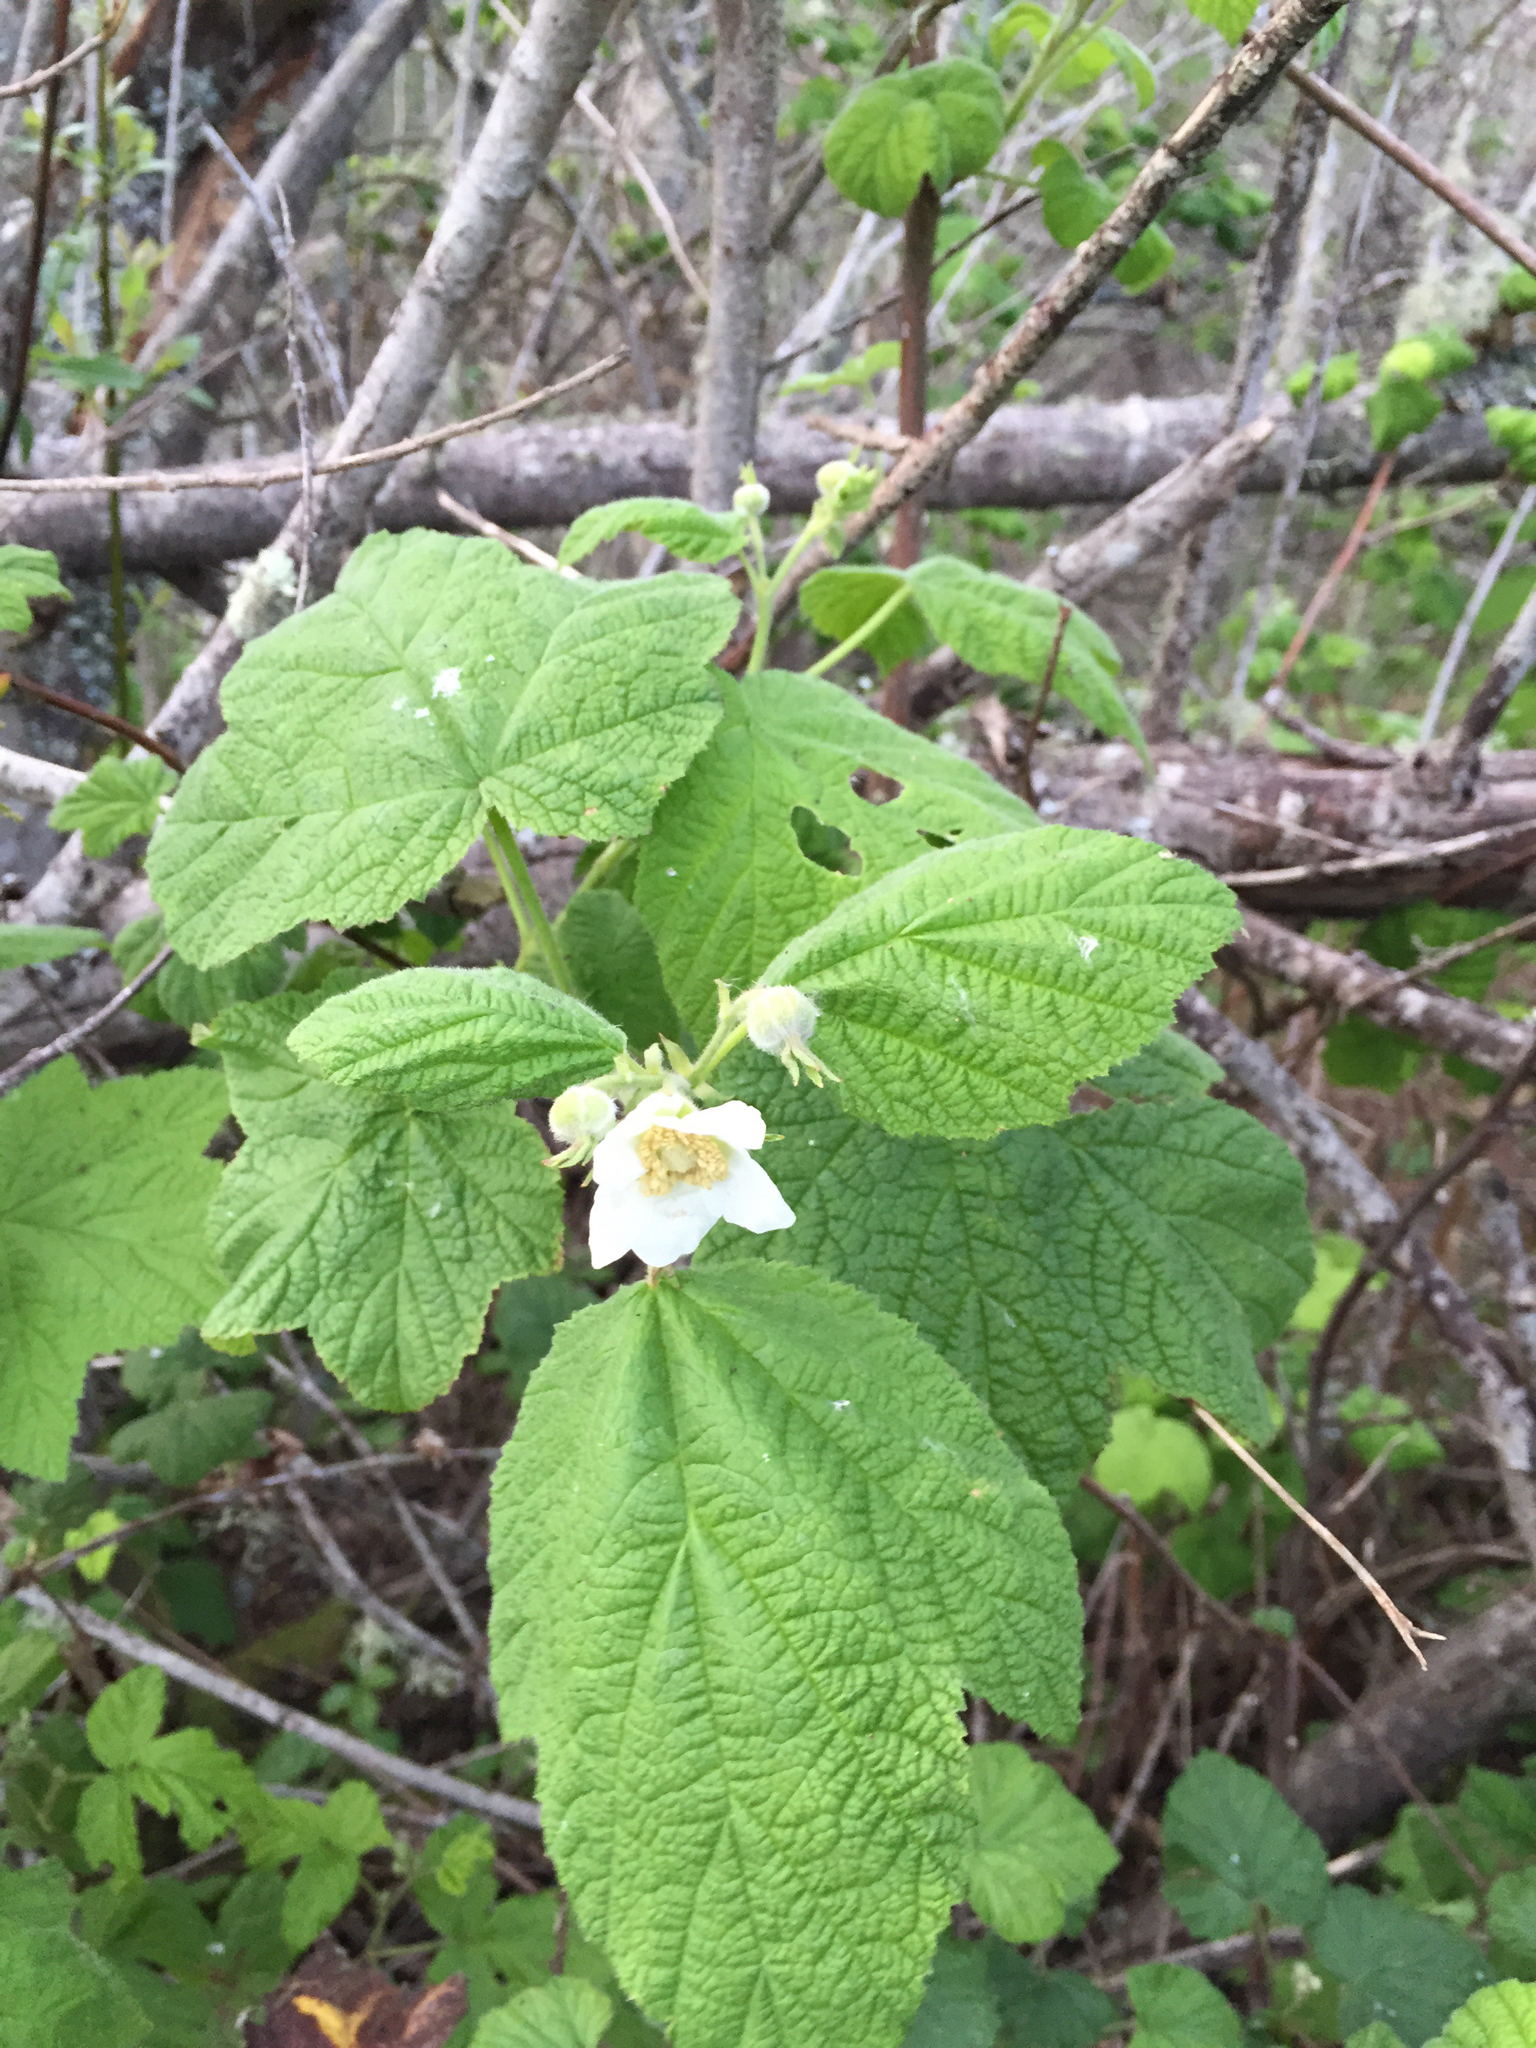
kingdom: Plantae
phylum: Tracheophyta
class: Magnoliopsida
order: Rosales
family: Rosaceae
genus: Rubus
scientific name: Rubus parviflorus
